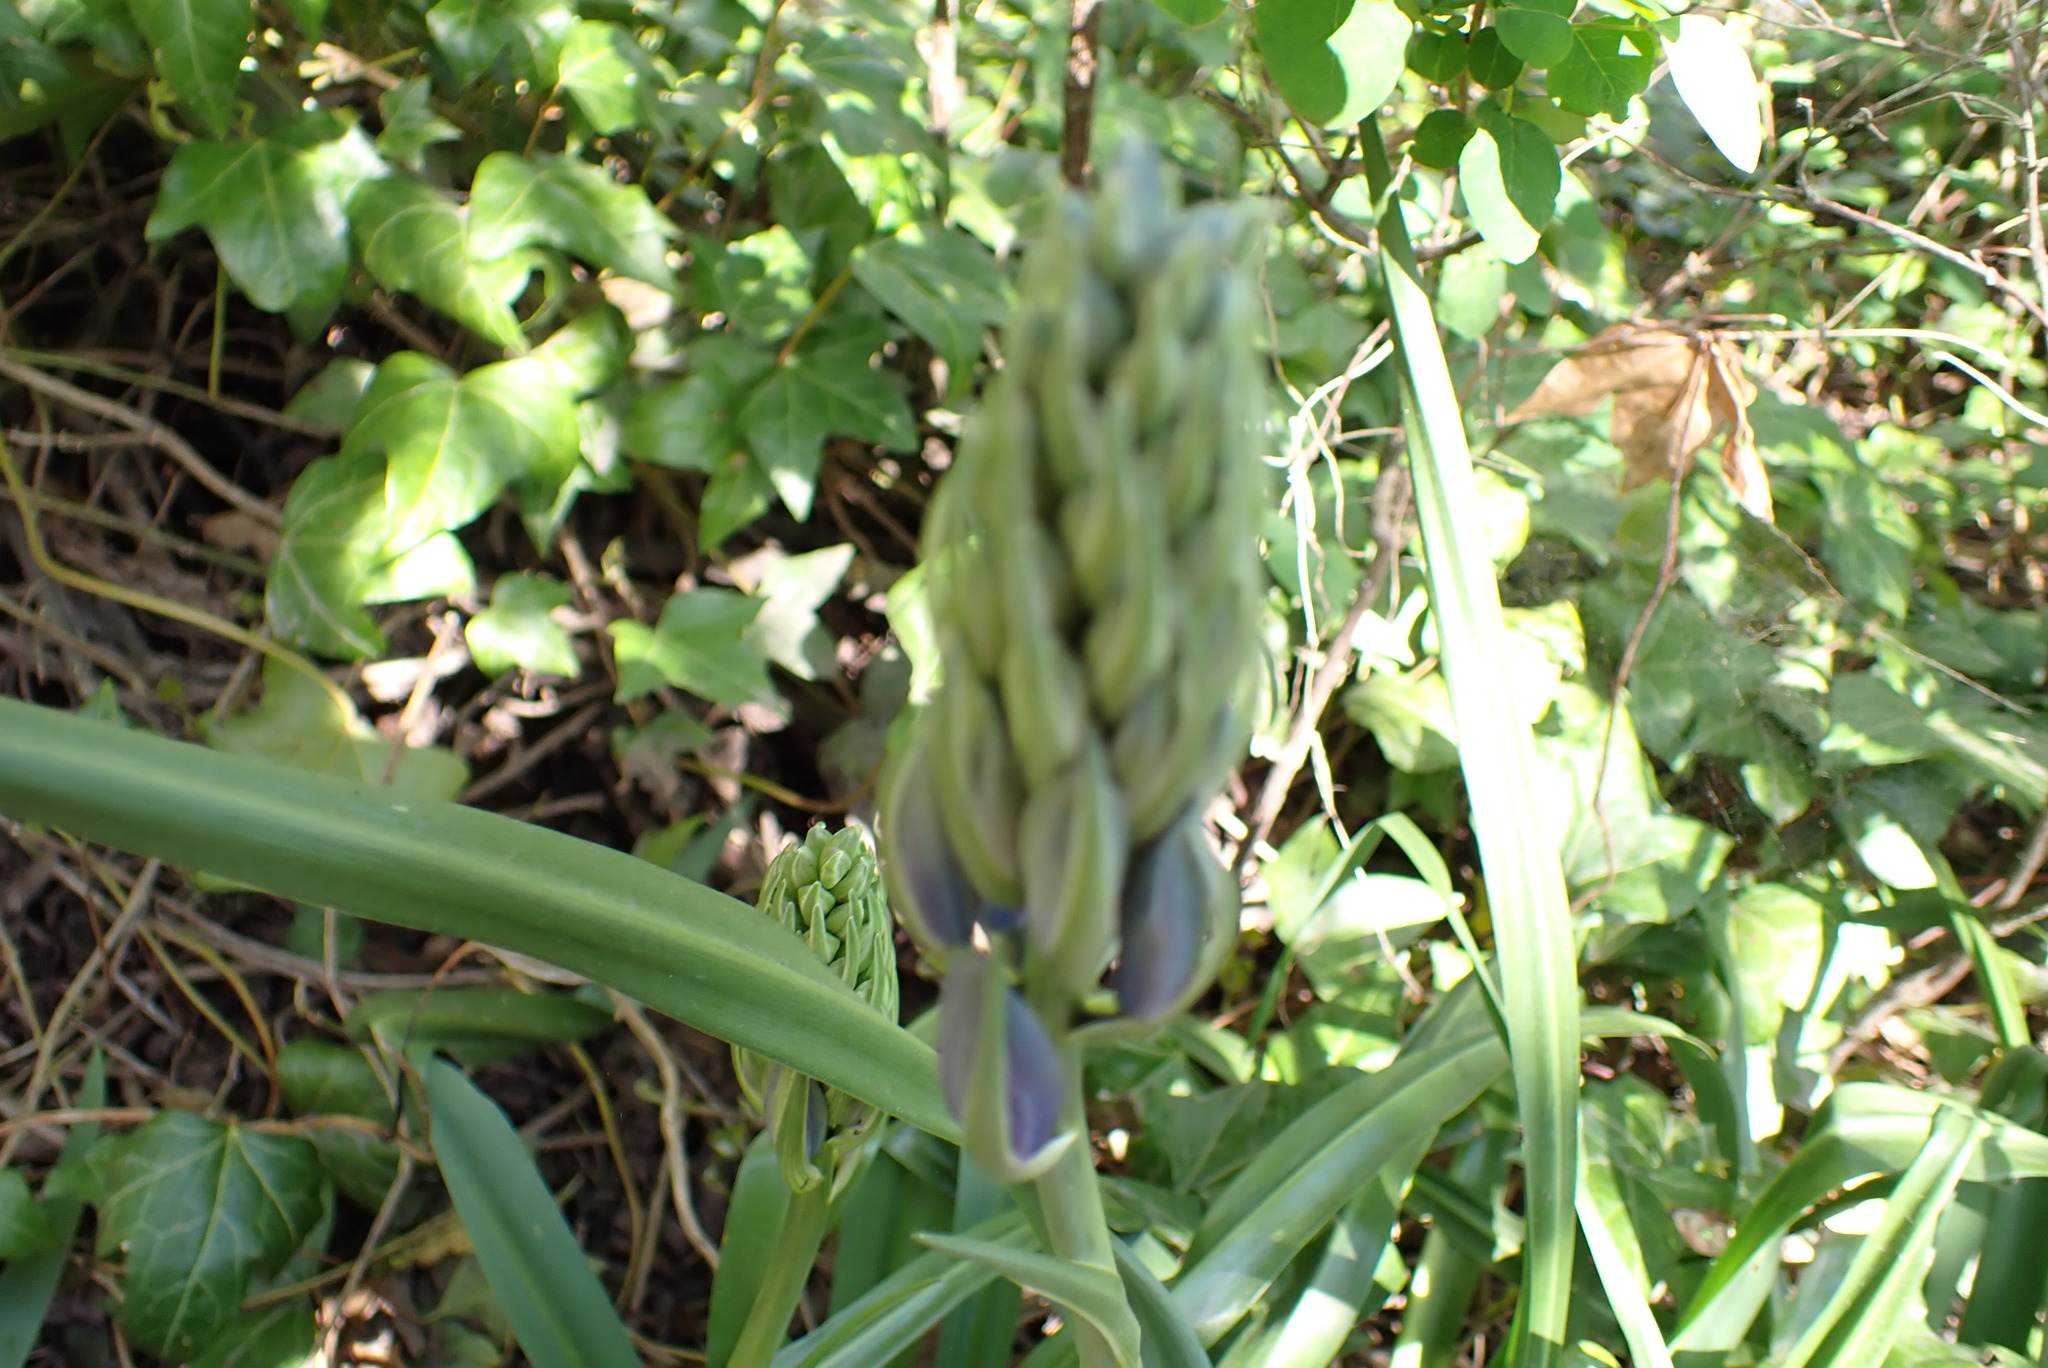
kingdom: Plantae
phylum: Tracheophyta
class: Liliopsida
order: Asparagales
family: Asparagaceae
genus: Camassia
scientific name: Camassia leichtlinii
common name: Leichtlin's camas
